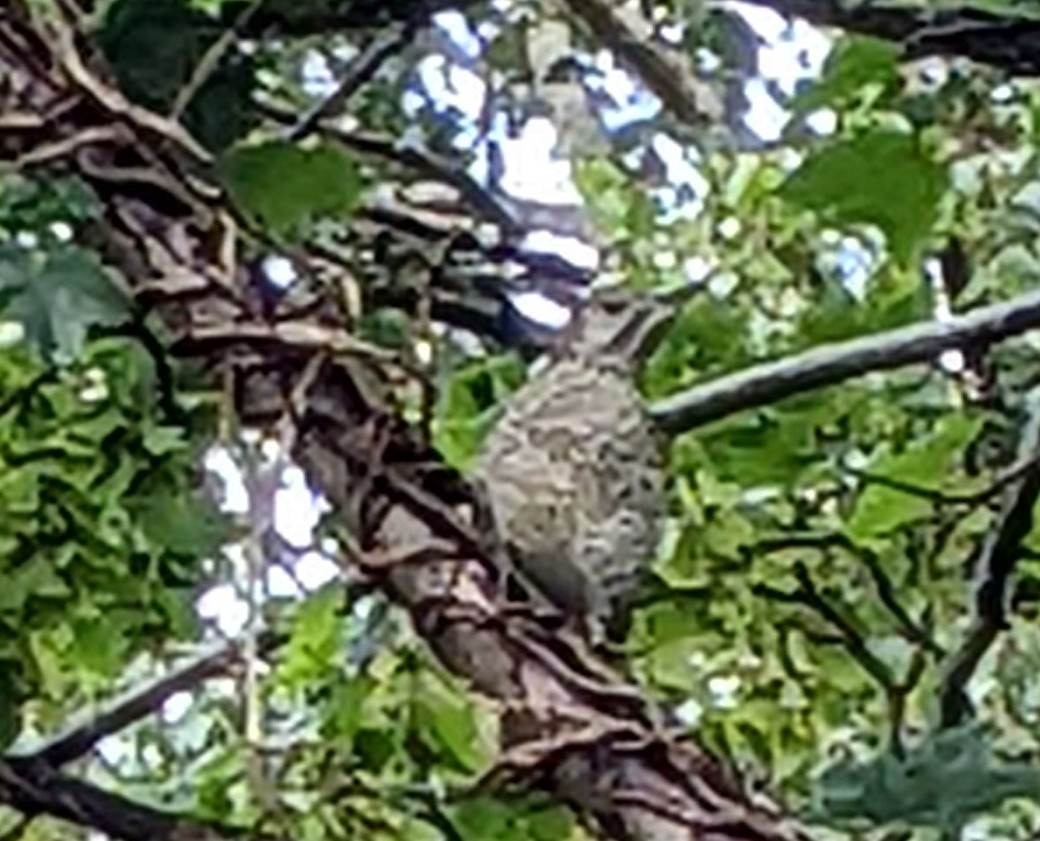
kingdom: Animalia
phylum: Chordata
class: Aves
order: Piciformes
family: Picidae
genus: Picus
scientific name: Picus viridis
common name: European green woodpecker
